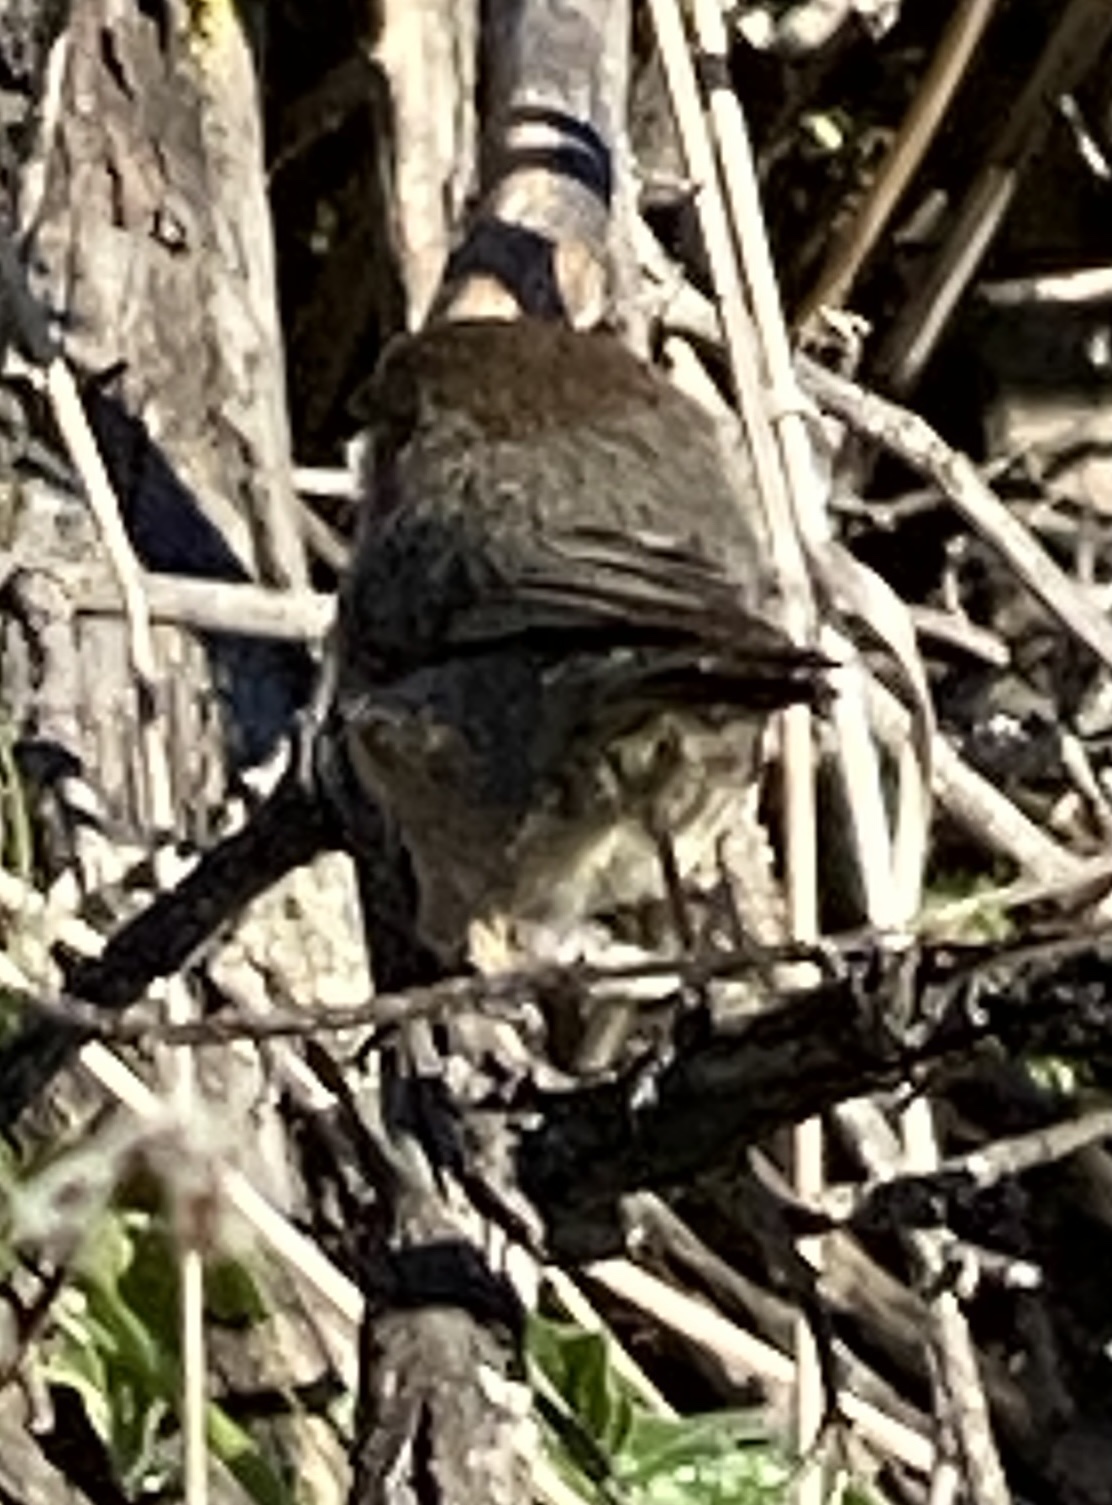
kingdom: Animalia
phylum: Chordata
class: Aves
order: Passeriformes
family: Aegithalidae
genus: Psaltriparus
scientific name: Psaltriparus minimus
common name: American bushtit
